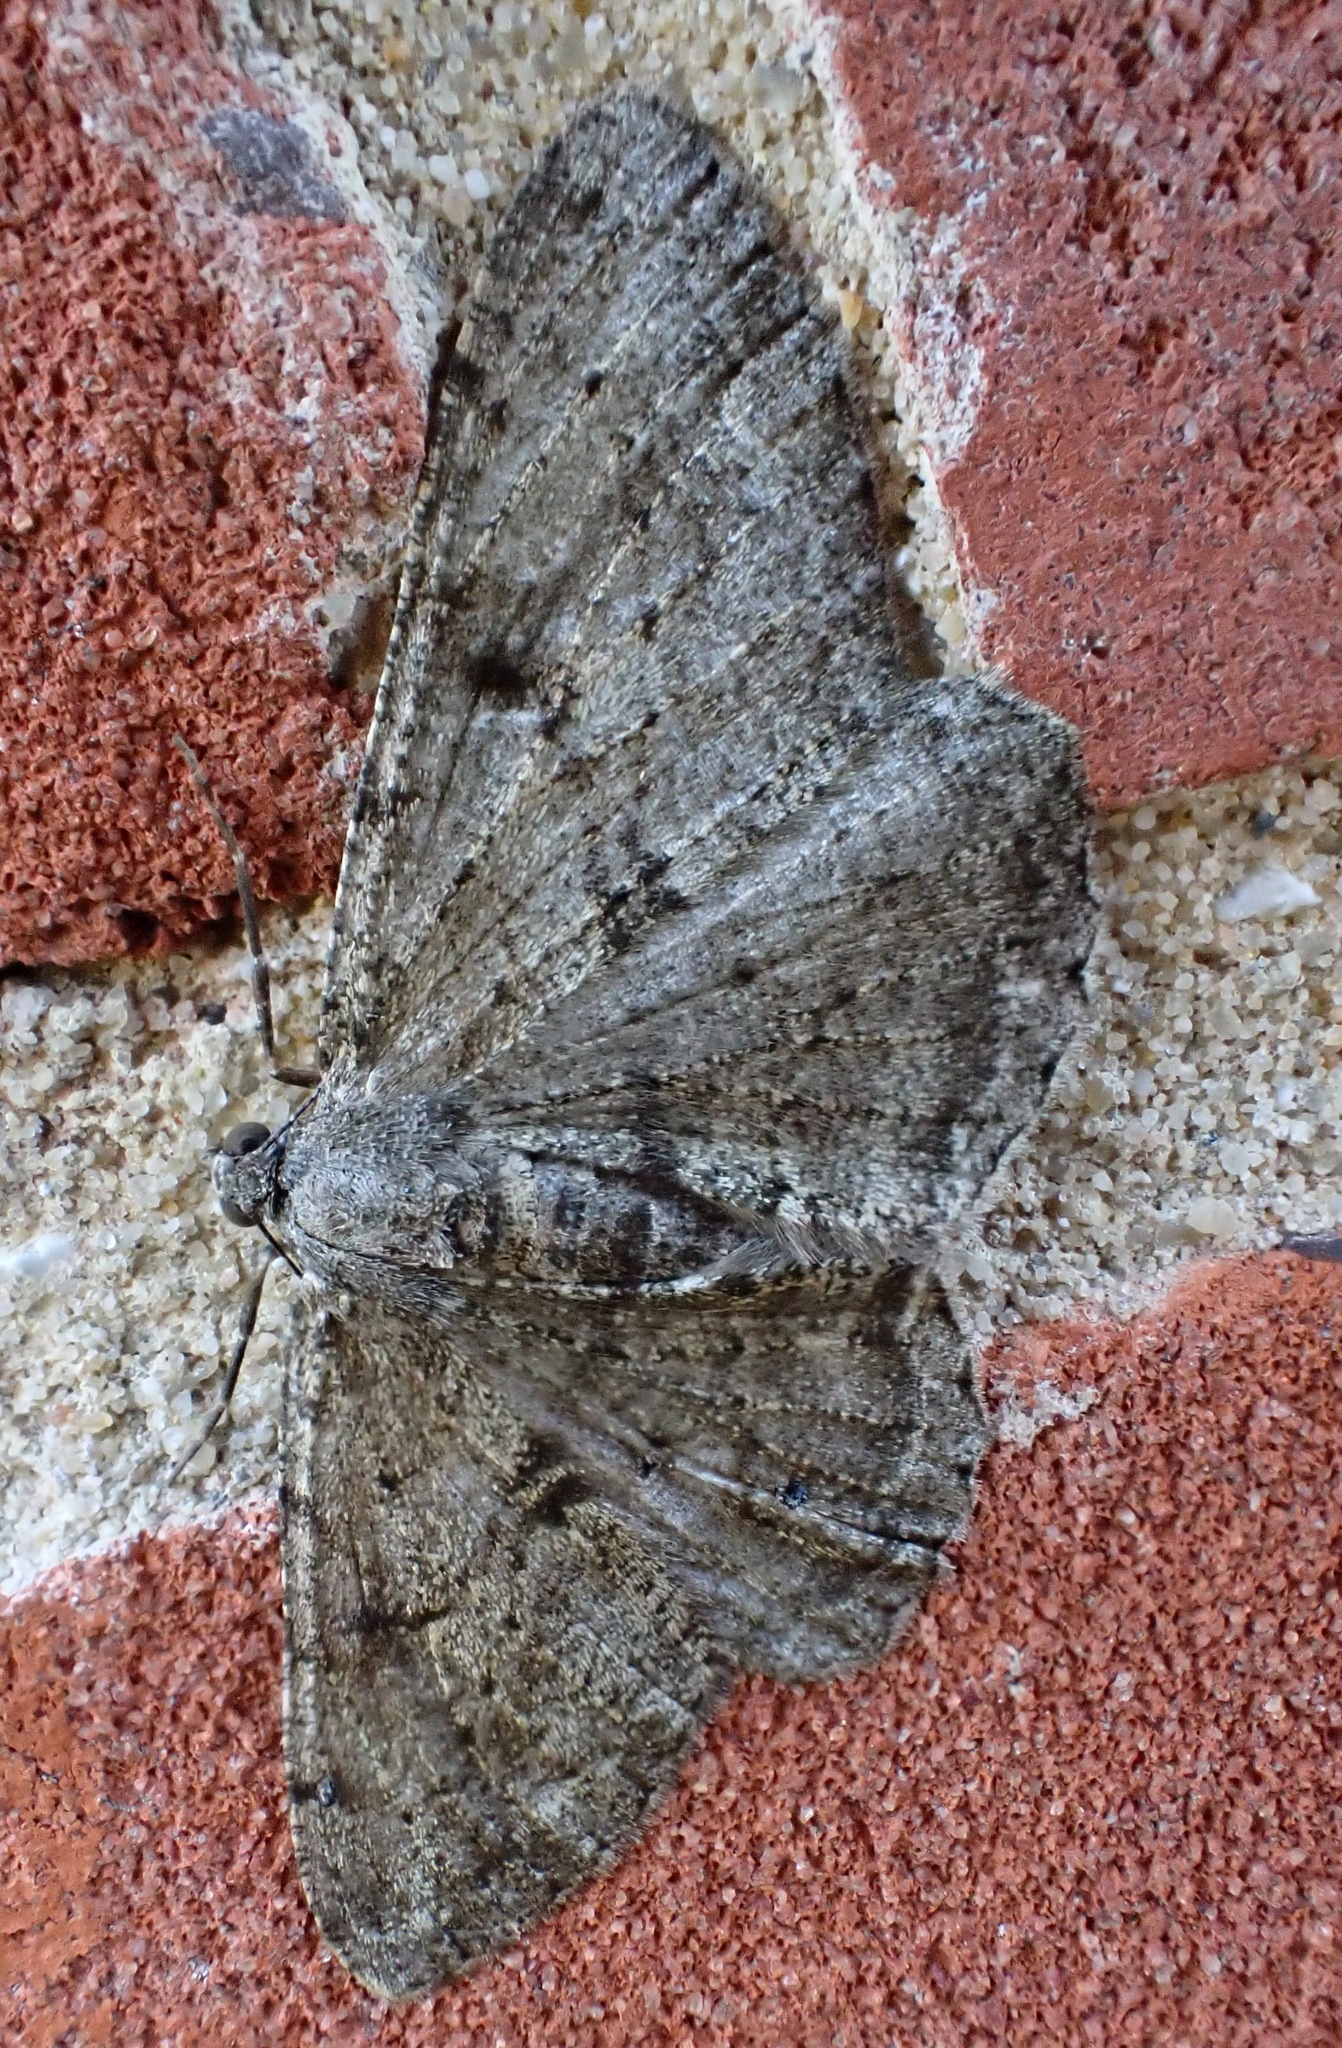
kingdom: Animalia
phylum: Arthropoda
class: Insecta
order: Lepidoptera
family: Geometridae
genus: Peribatodes
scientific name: Peribatodes rhomboidaria
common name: Willow beauty
